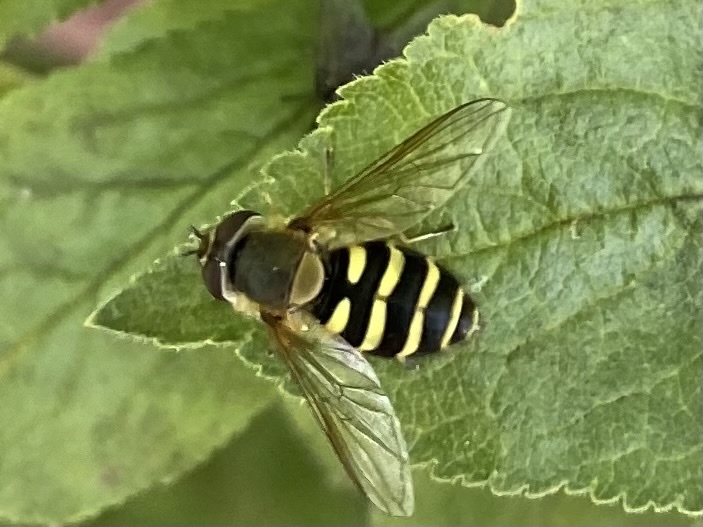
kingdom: Animalia
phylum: Arthropoda
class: Insecta
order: Diptera
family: Syrphidae
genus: Syrphus
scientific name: Syrphus
